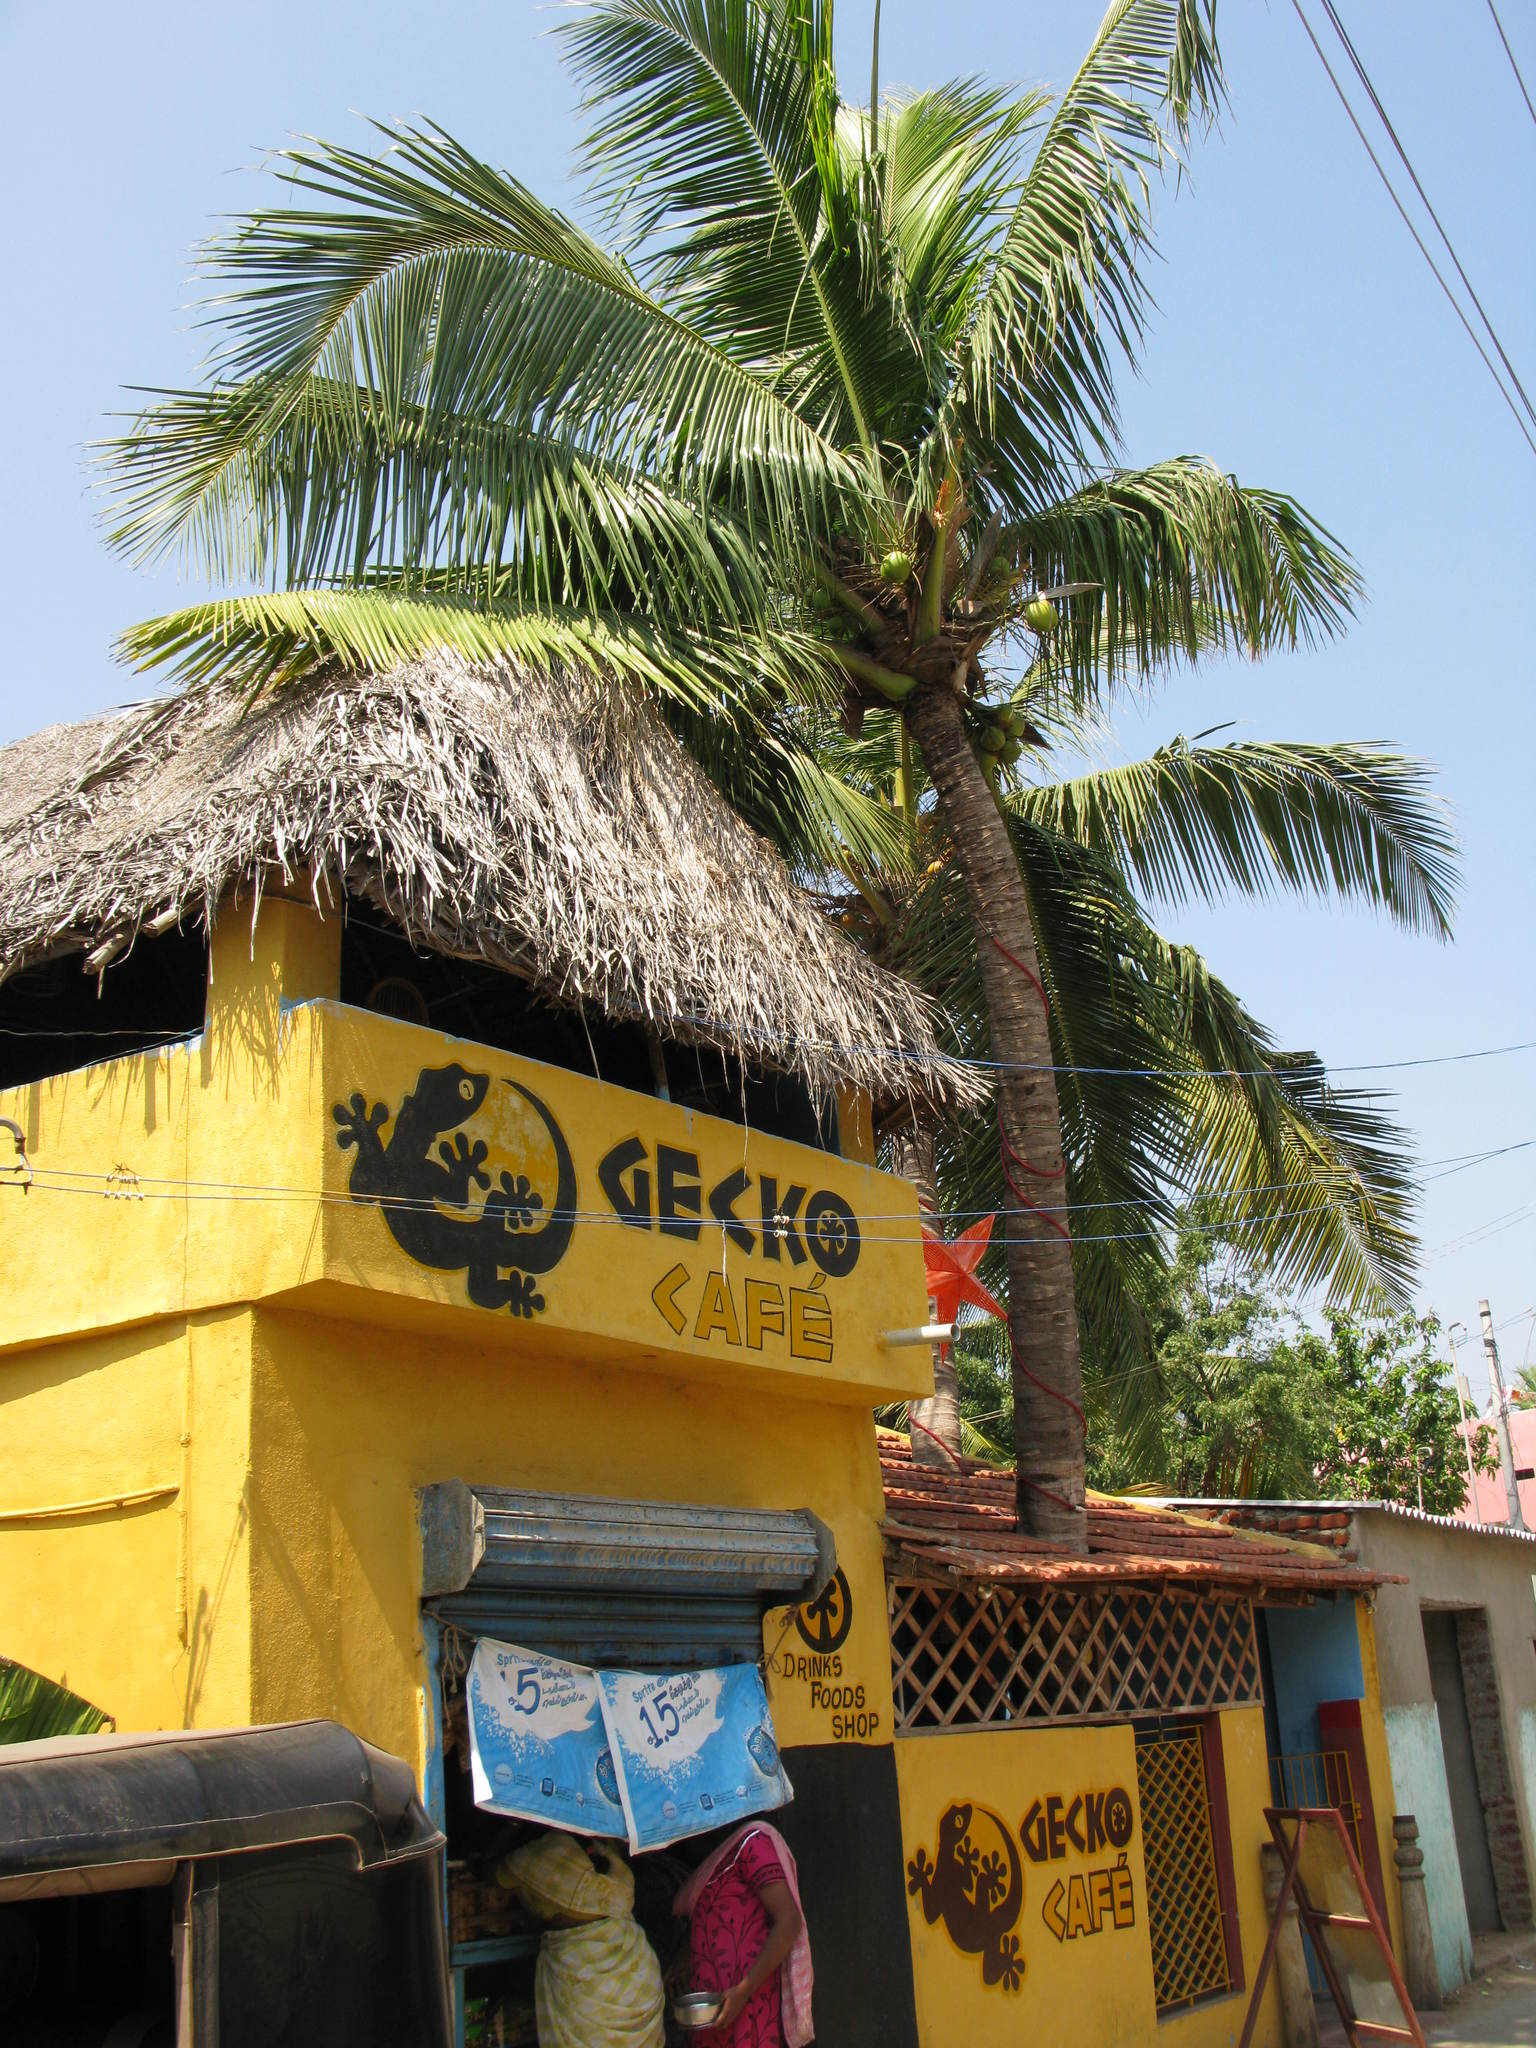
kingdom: Plantae
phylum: Tracheophyta
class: Liliopsida
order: Arecales
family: Arecaceae
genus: Cocos
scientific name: Cocos nucifera
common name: Coconut palm
